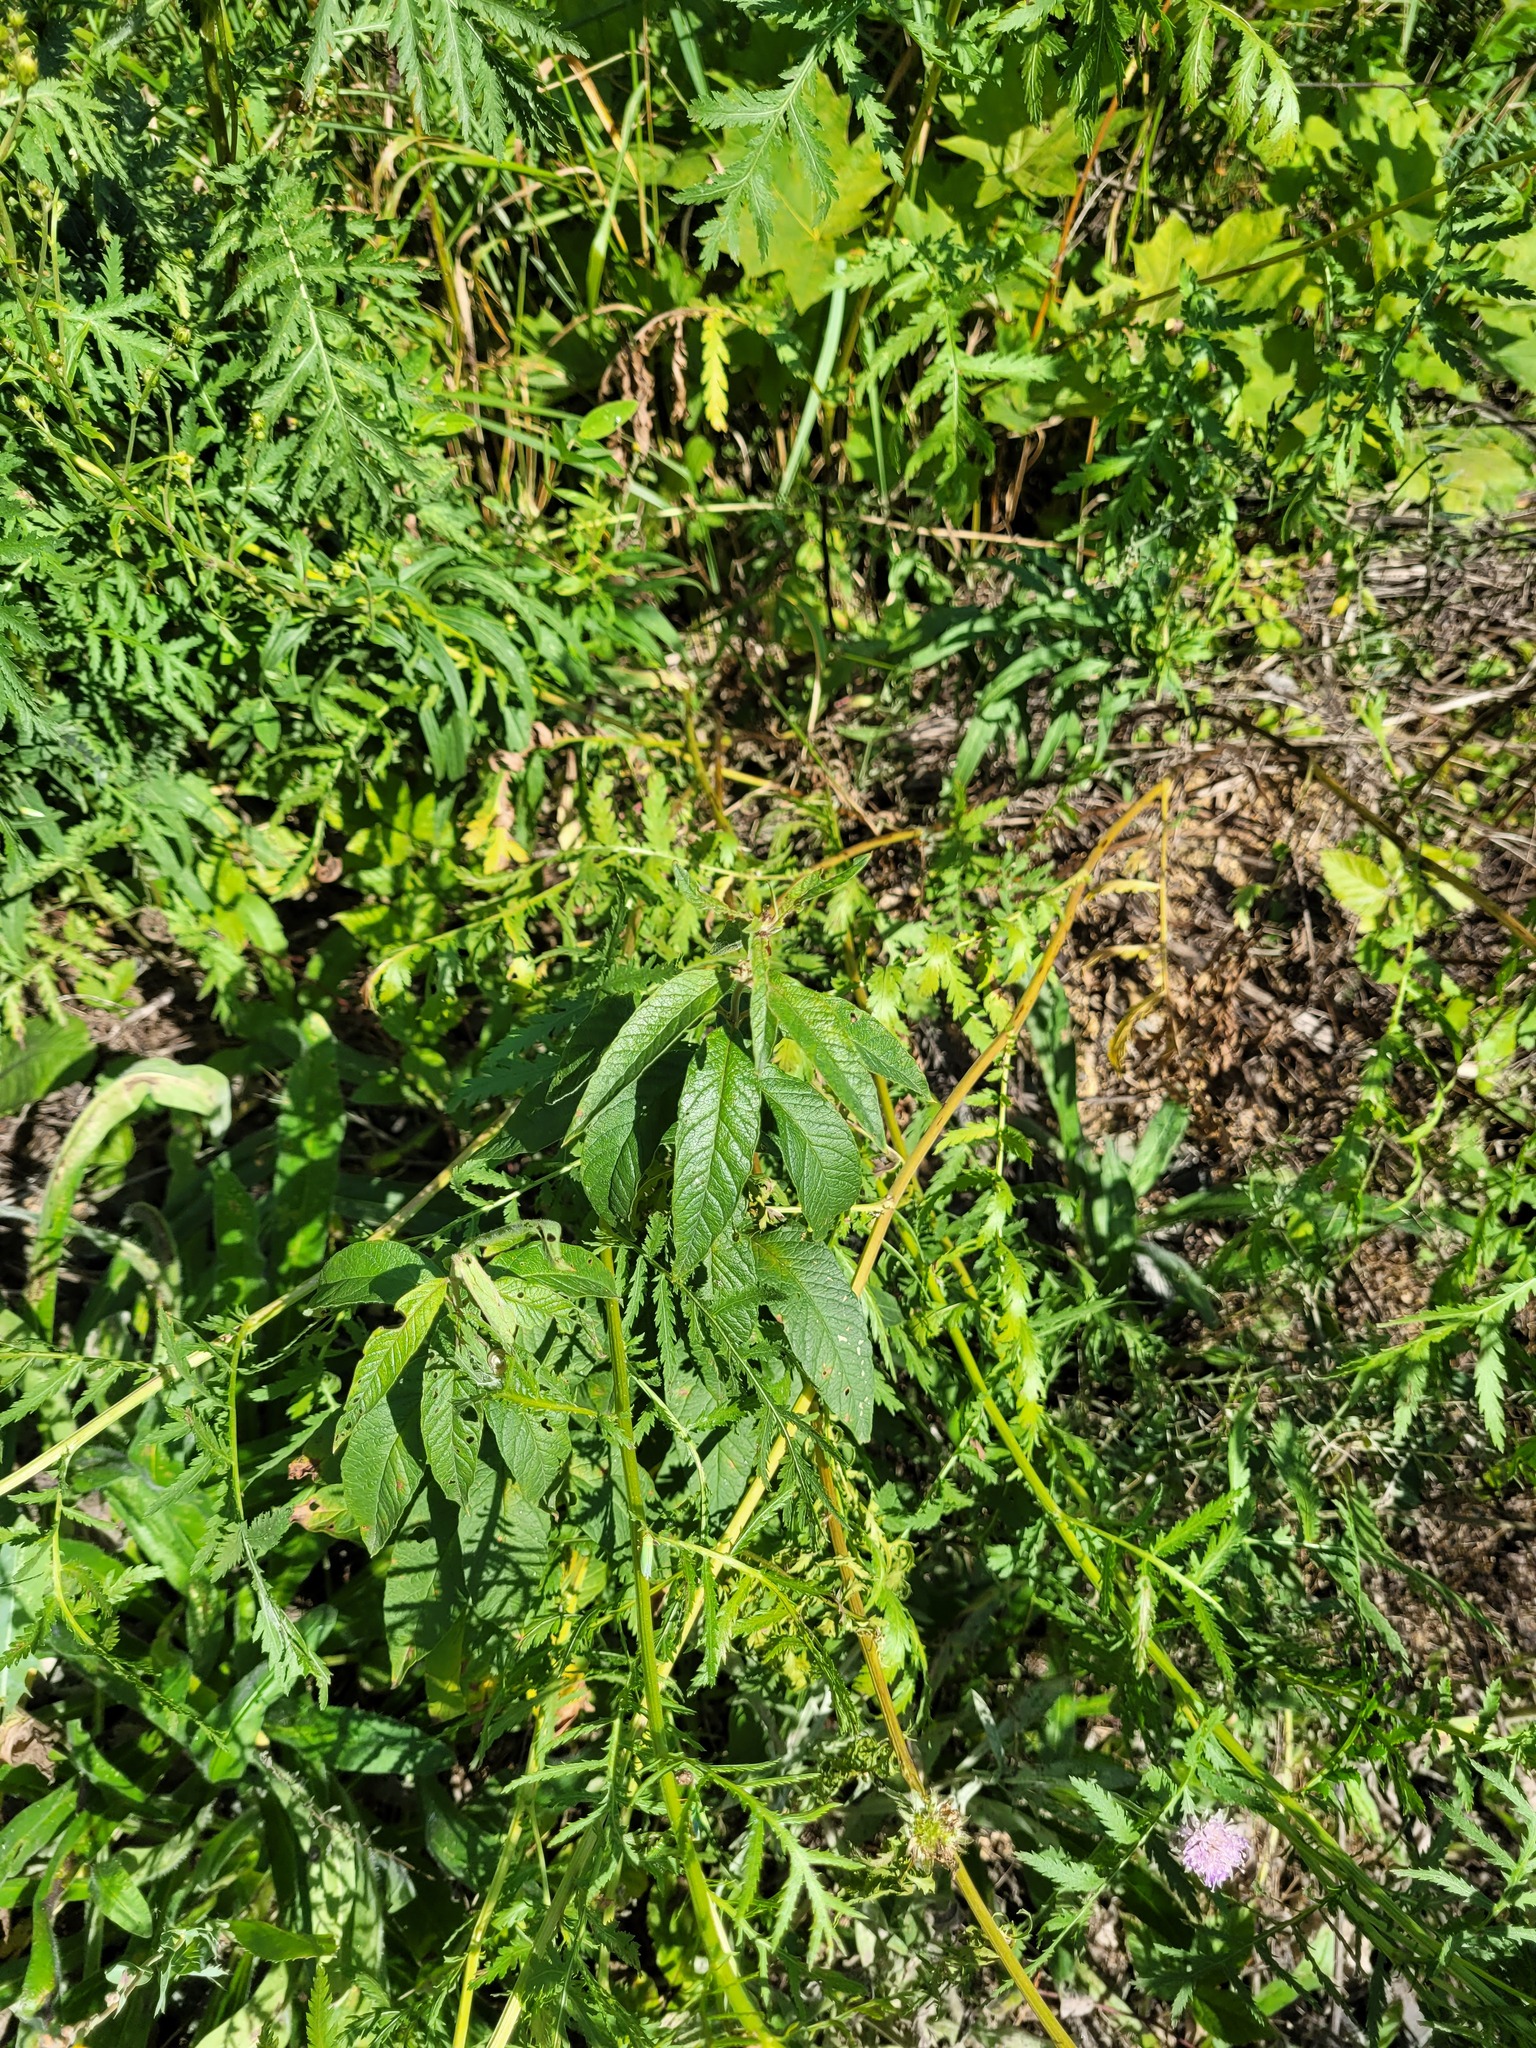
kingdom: Plantae
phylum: Tracheophyta
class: Magnoliopsida
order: Ericales
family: Primulaceae
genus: Lysimachia
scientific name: Lysimachia vulgaris
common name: Yellow loosestrife
